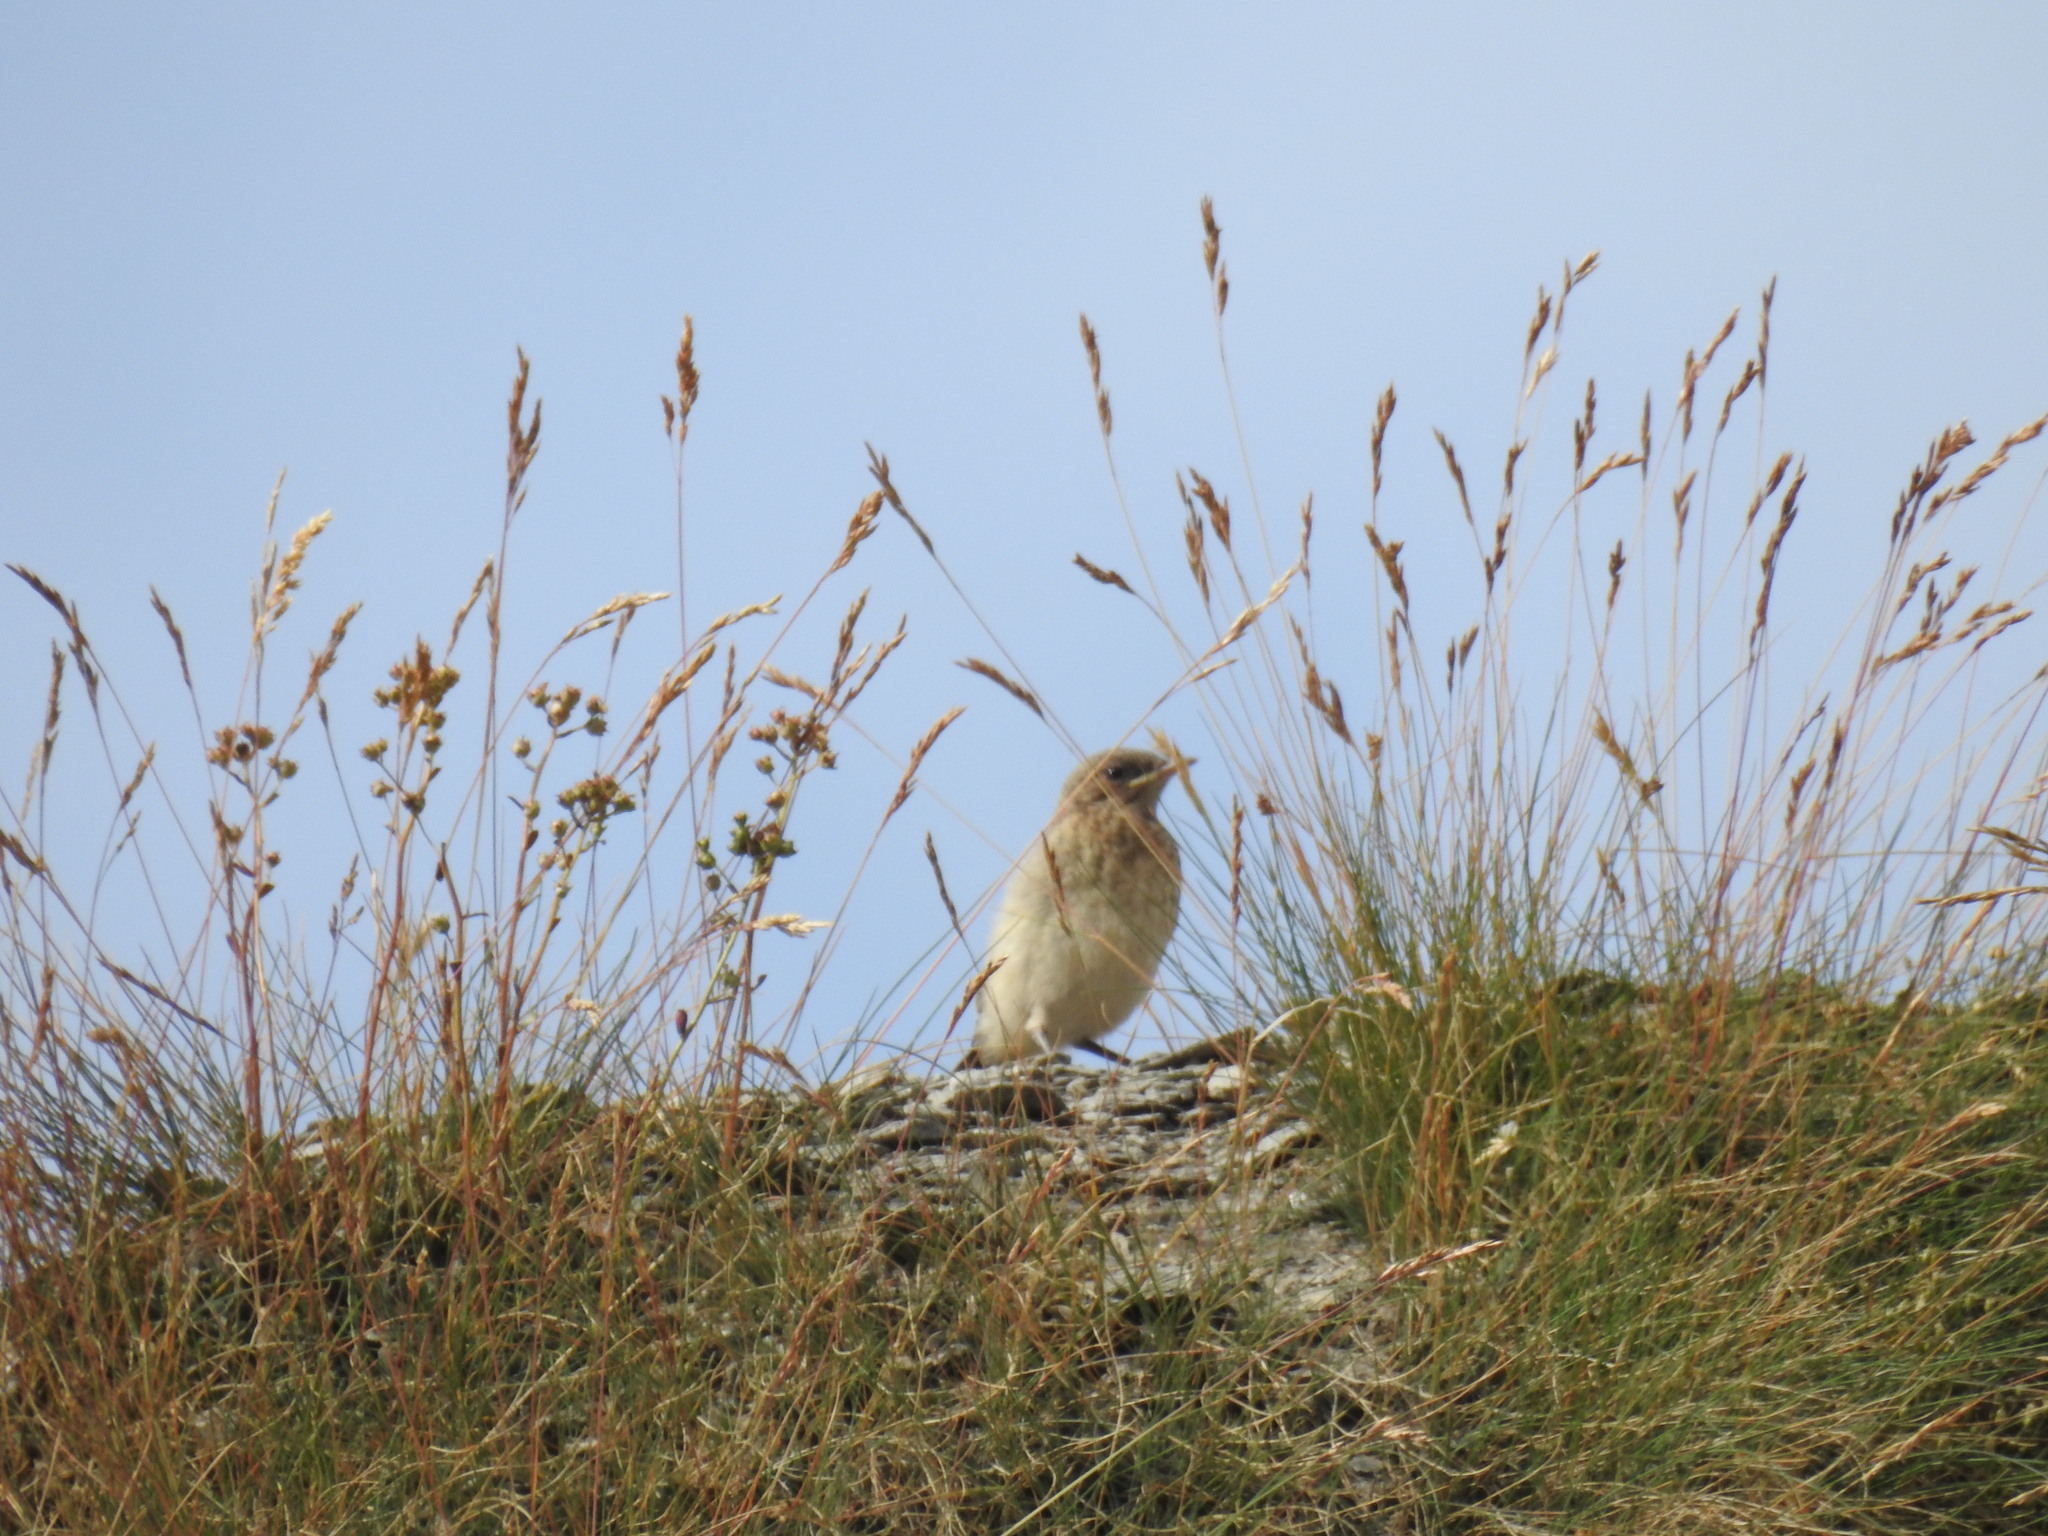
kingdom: Animalia
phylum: Chordata
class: Aves
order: Passeriformes
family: Muscicapidae
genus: Oenanthe
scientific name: Oenanthe oenanthe
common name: Northern wheatear
